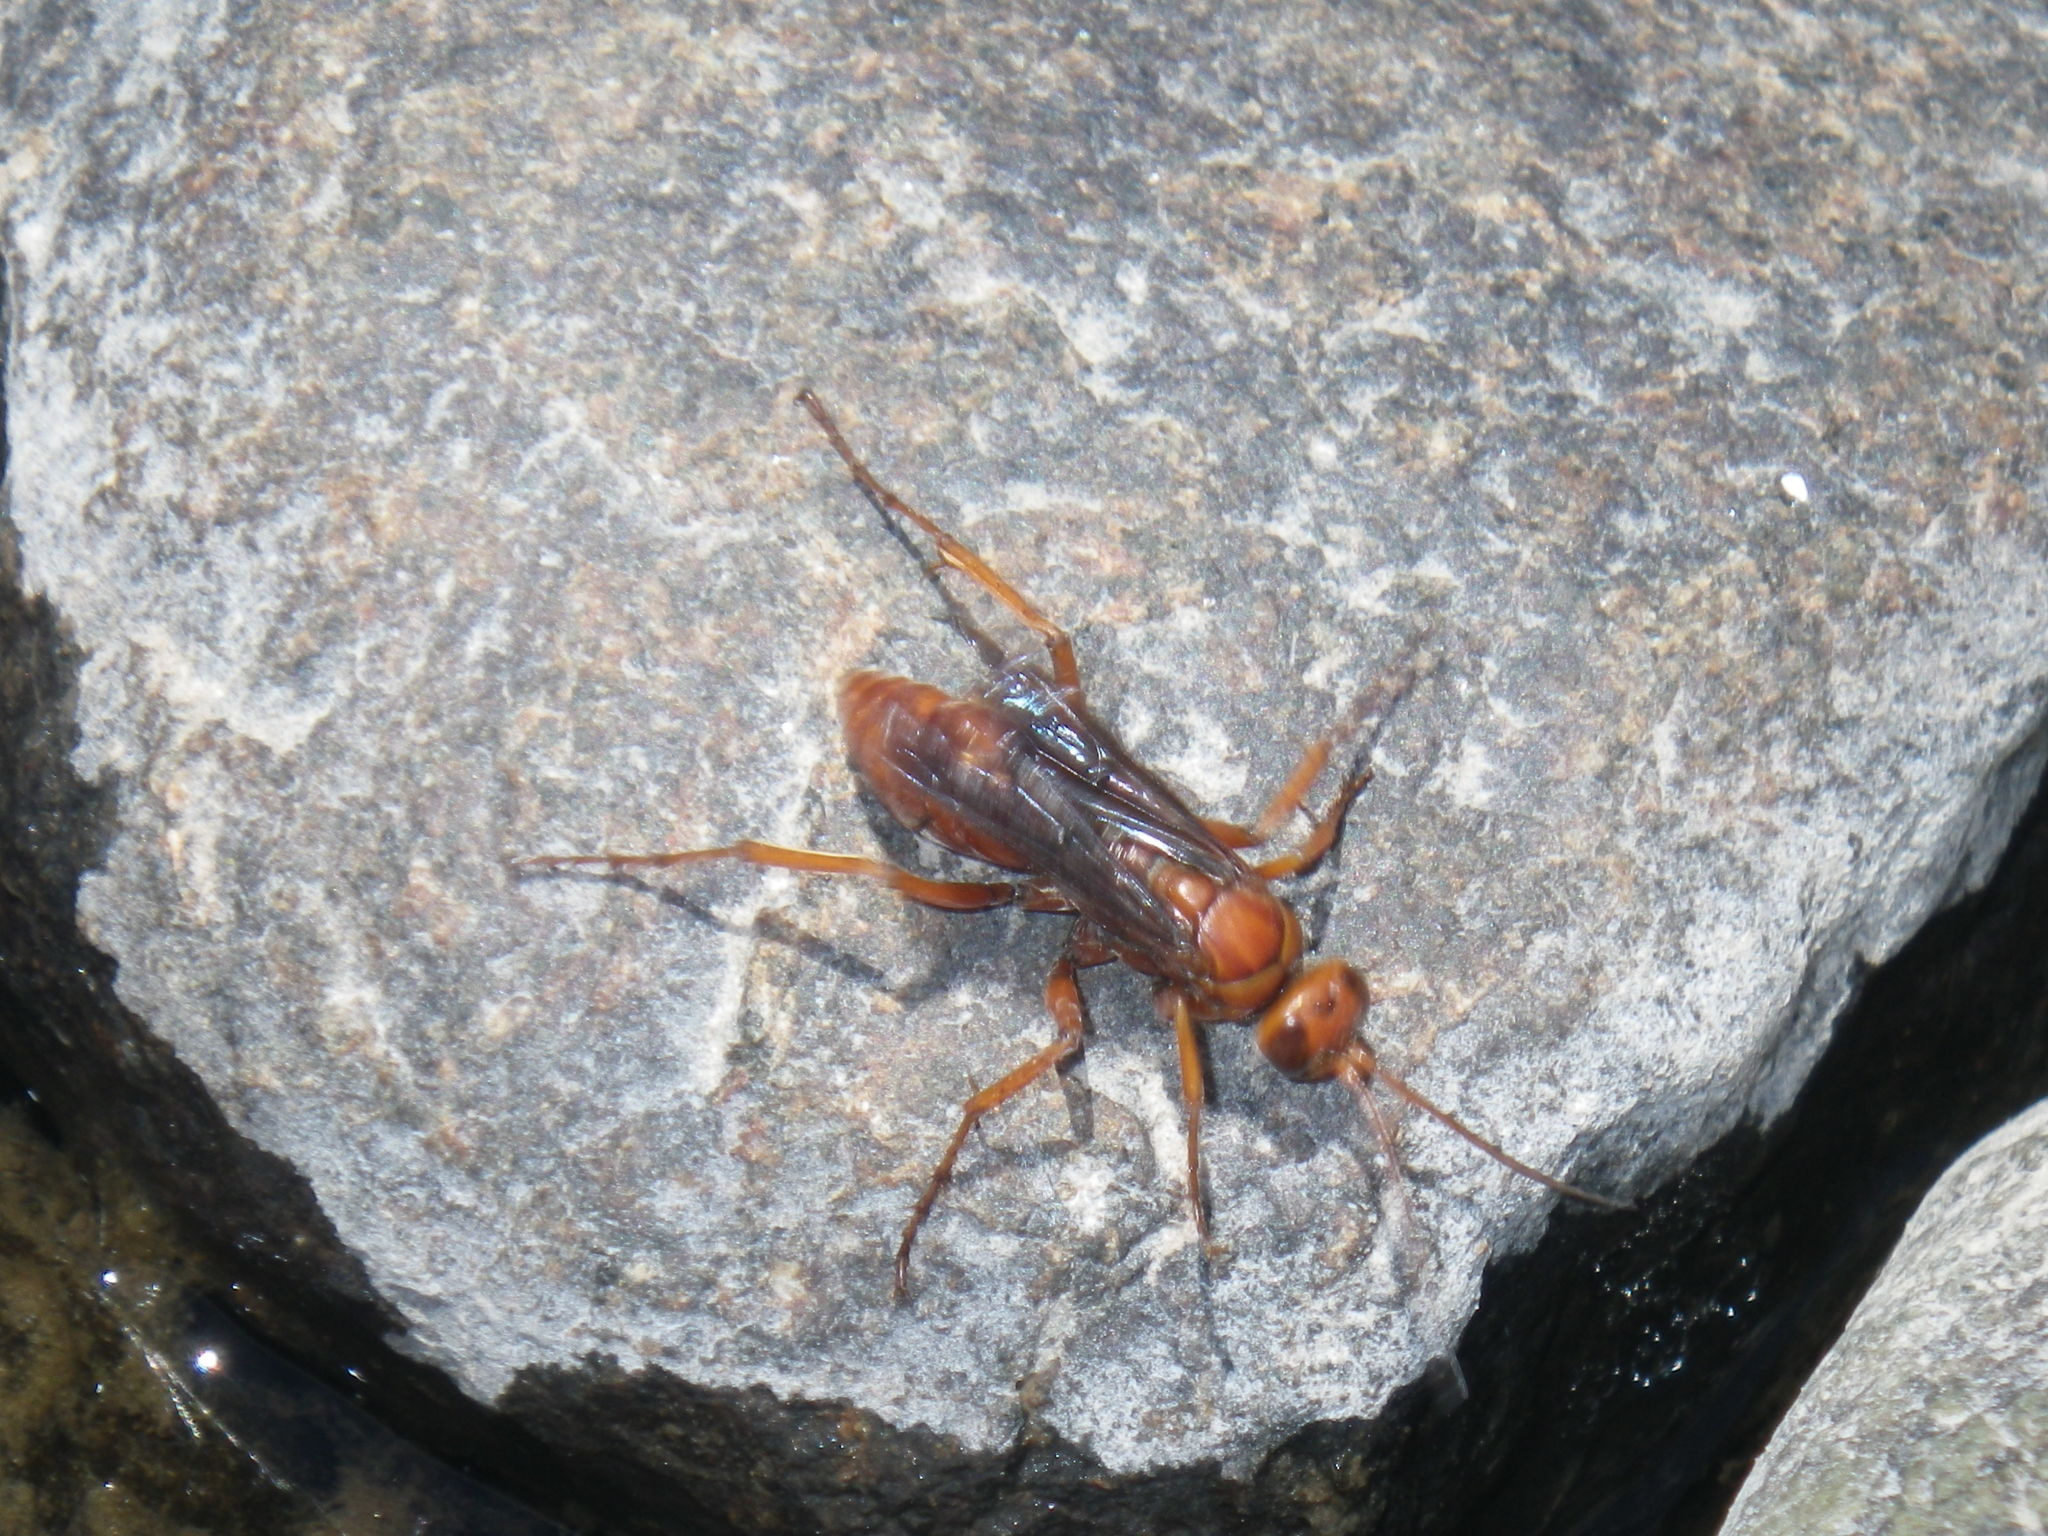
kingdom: Animalia
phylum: Arthropoda
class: Insecta
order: Hymenoptera
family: Pompilidae
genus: Tachypompilus
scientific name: Tachypompilus unicolor
